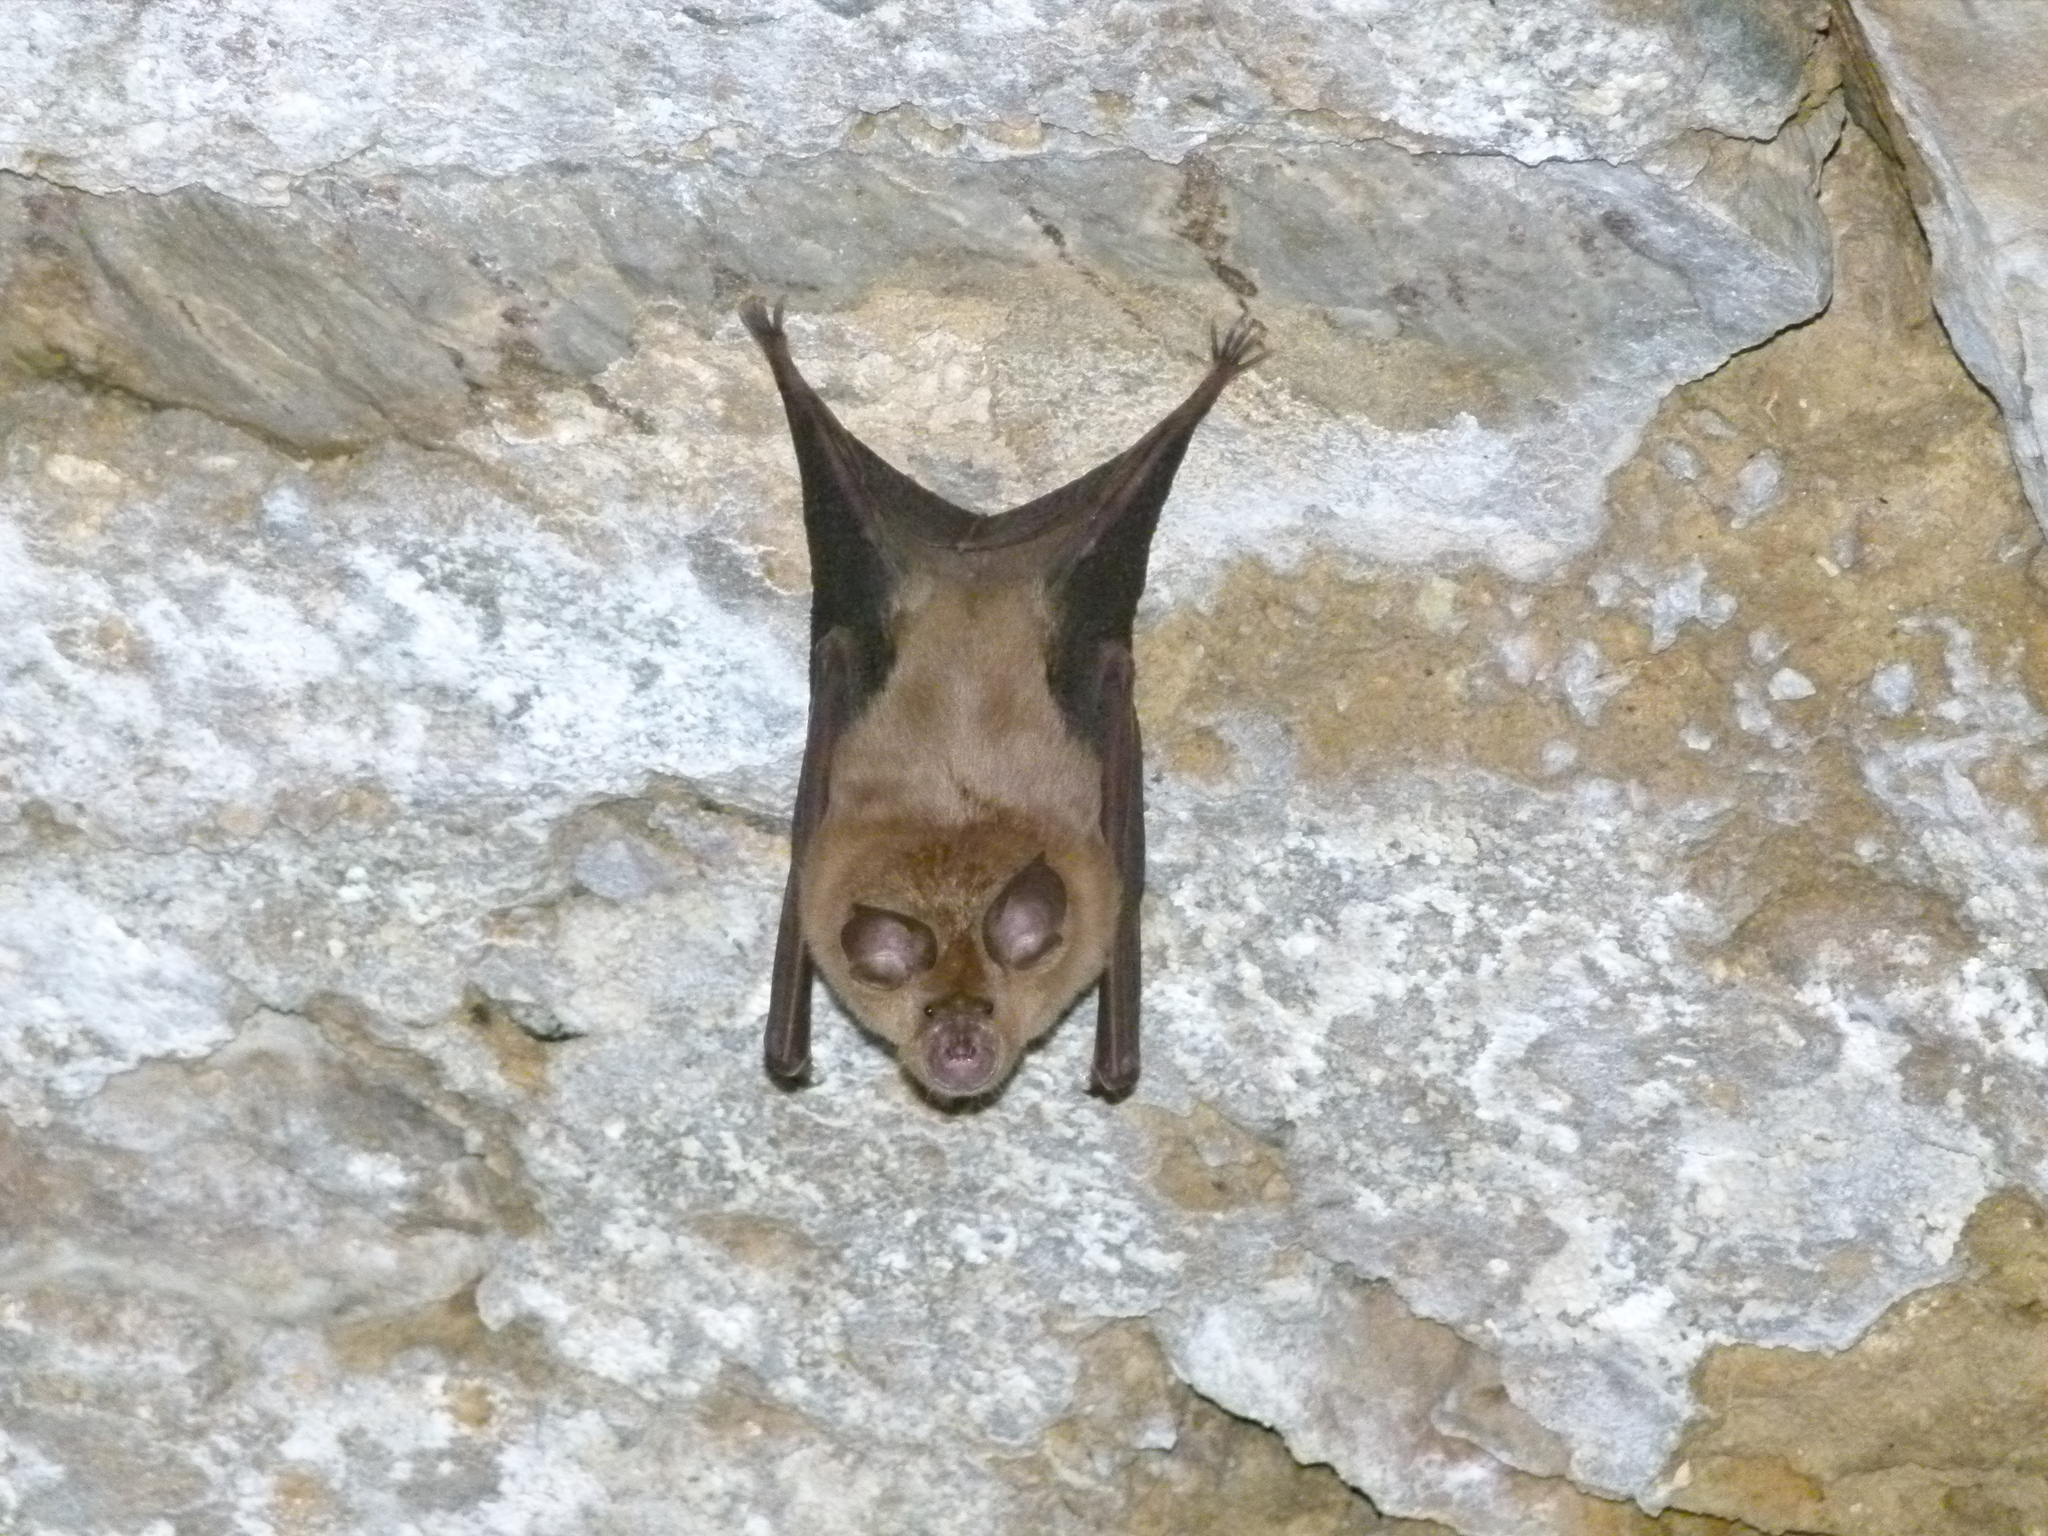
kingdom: Animalia
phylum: Chordata
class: Mammalia
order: Chiroptera
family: Rhinolophidae
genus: Rhinolophus
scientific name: Rhinolophus ferrumequinum
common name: Greater horseshoe bat
